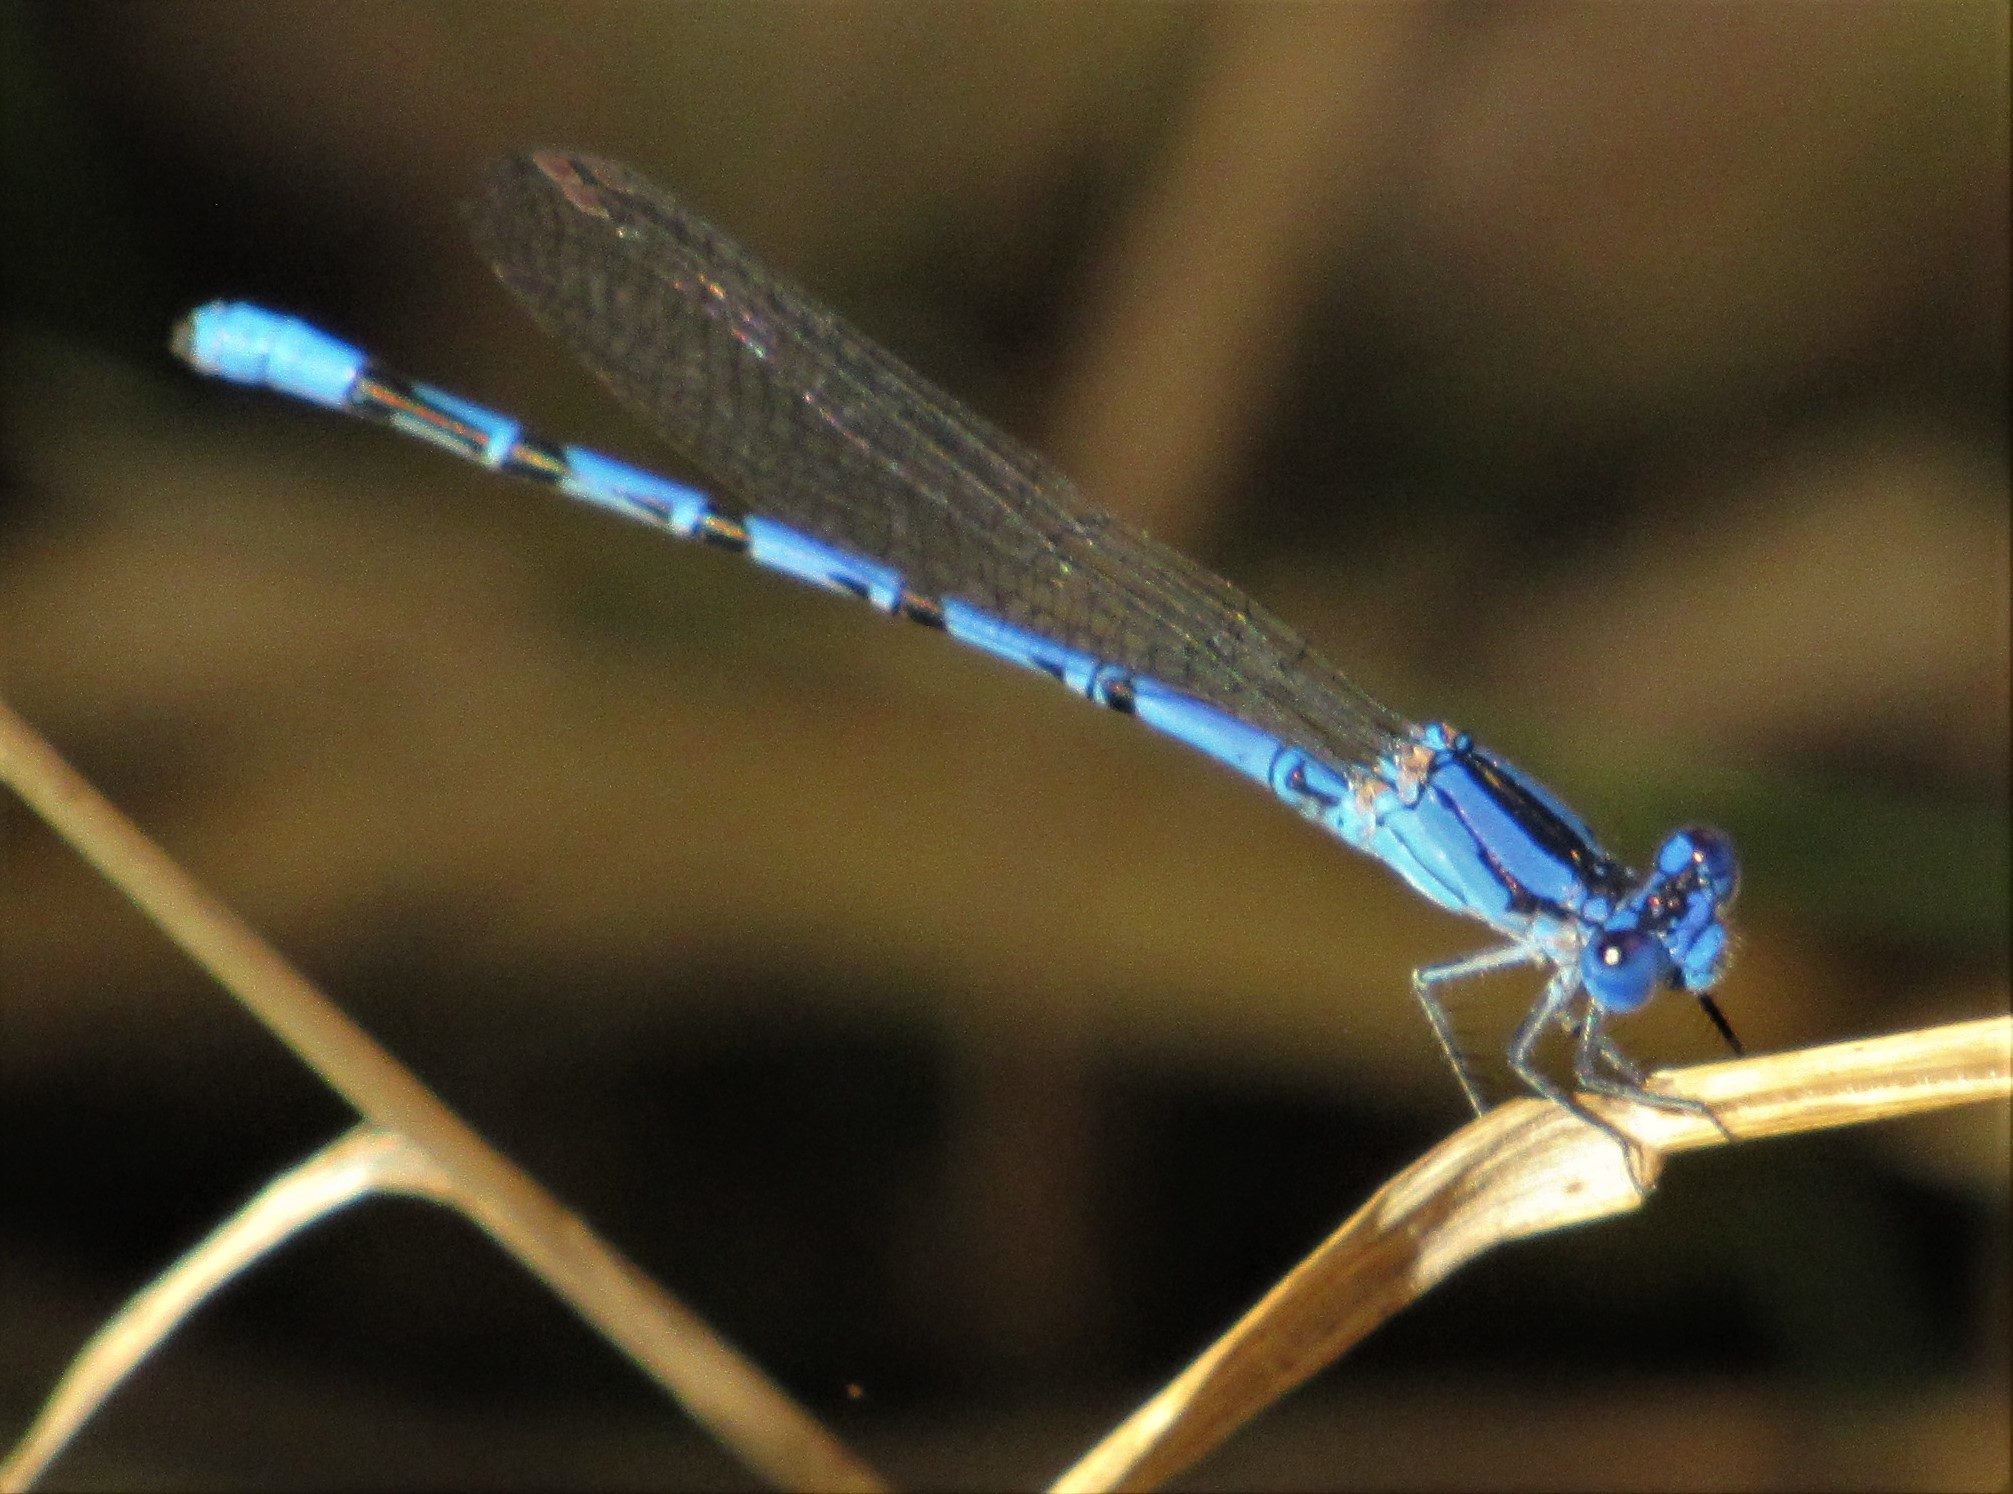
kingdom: Animalia
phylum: Arthropoda
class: Insecta
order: Odonata
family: Coenagrionidae
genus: Argia
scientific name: Argia funebris
